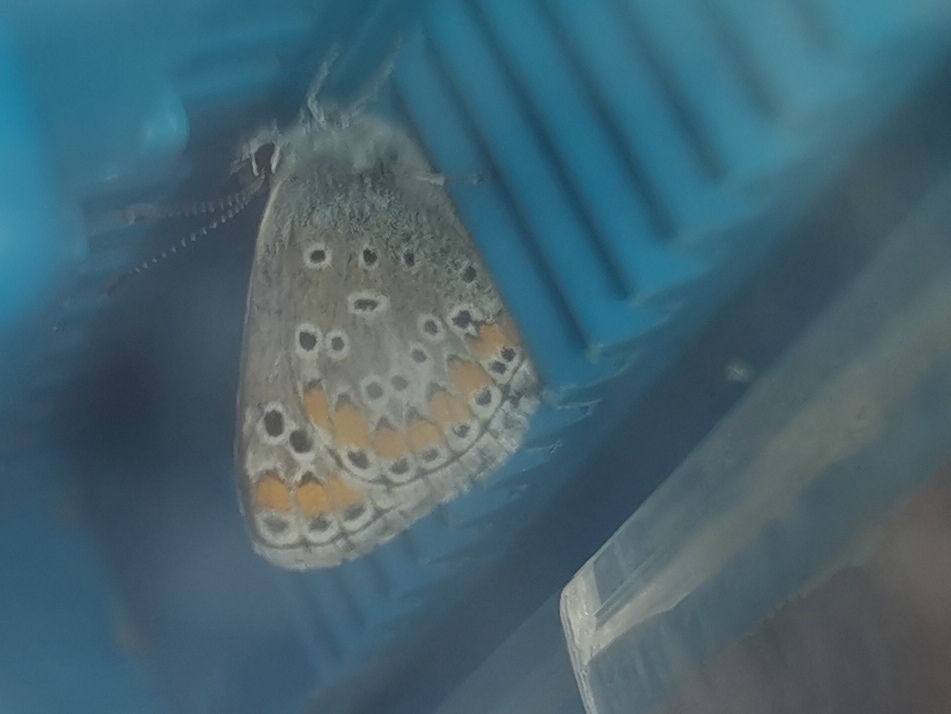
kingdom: Animalia
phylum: Arthropoda
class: Insecta
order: Lepidoptera
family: Lycaenidae
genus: Aricia
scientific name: Aricia agestis
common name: Brown argus
